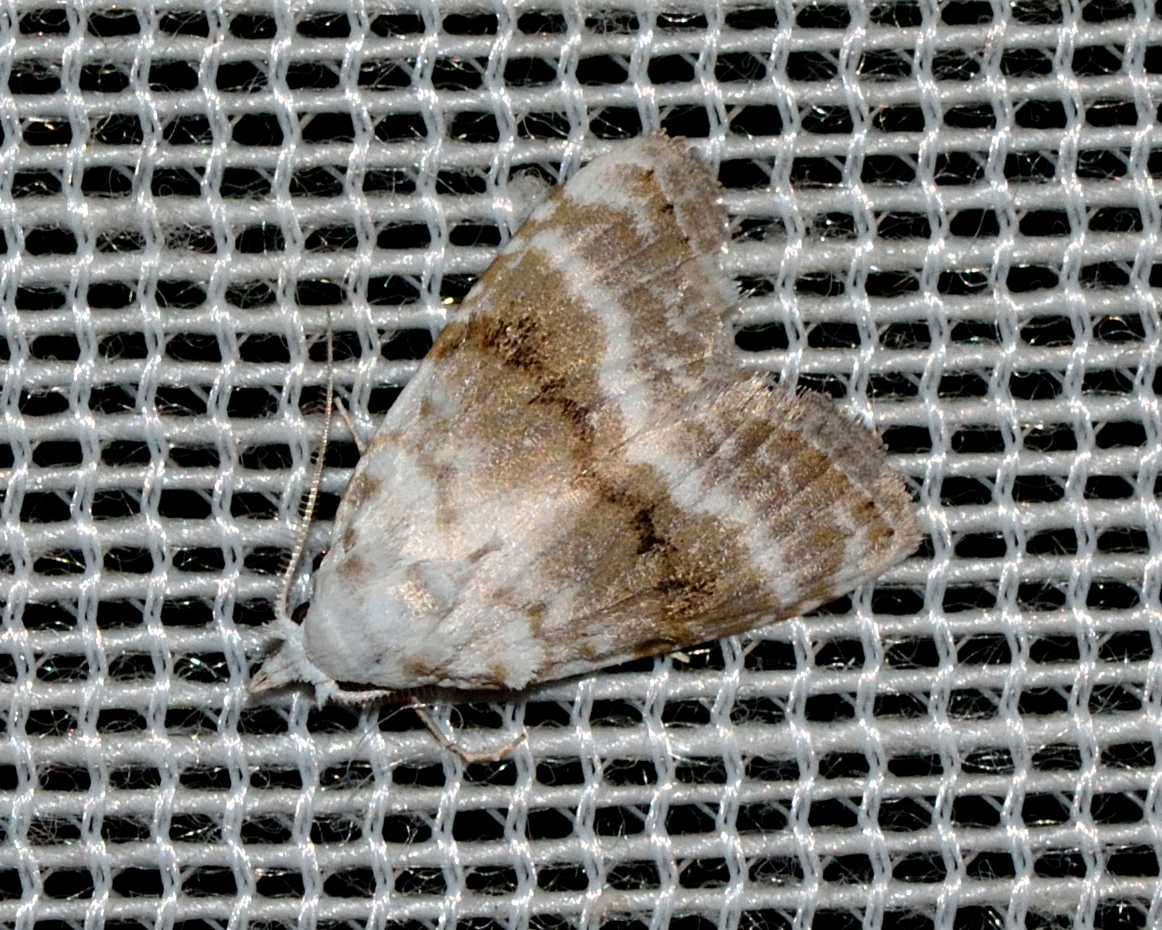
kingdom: Animalia
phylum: Arthropoda
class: Insecta
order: Lepidoptera
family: Nolidae
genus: Meganola
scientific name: Meganola albula
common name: Kent black arches
